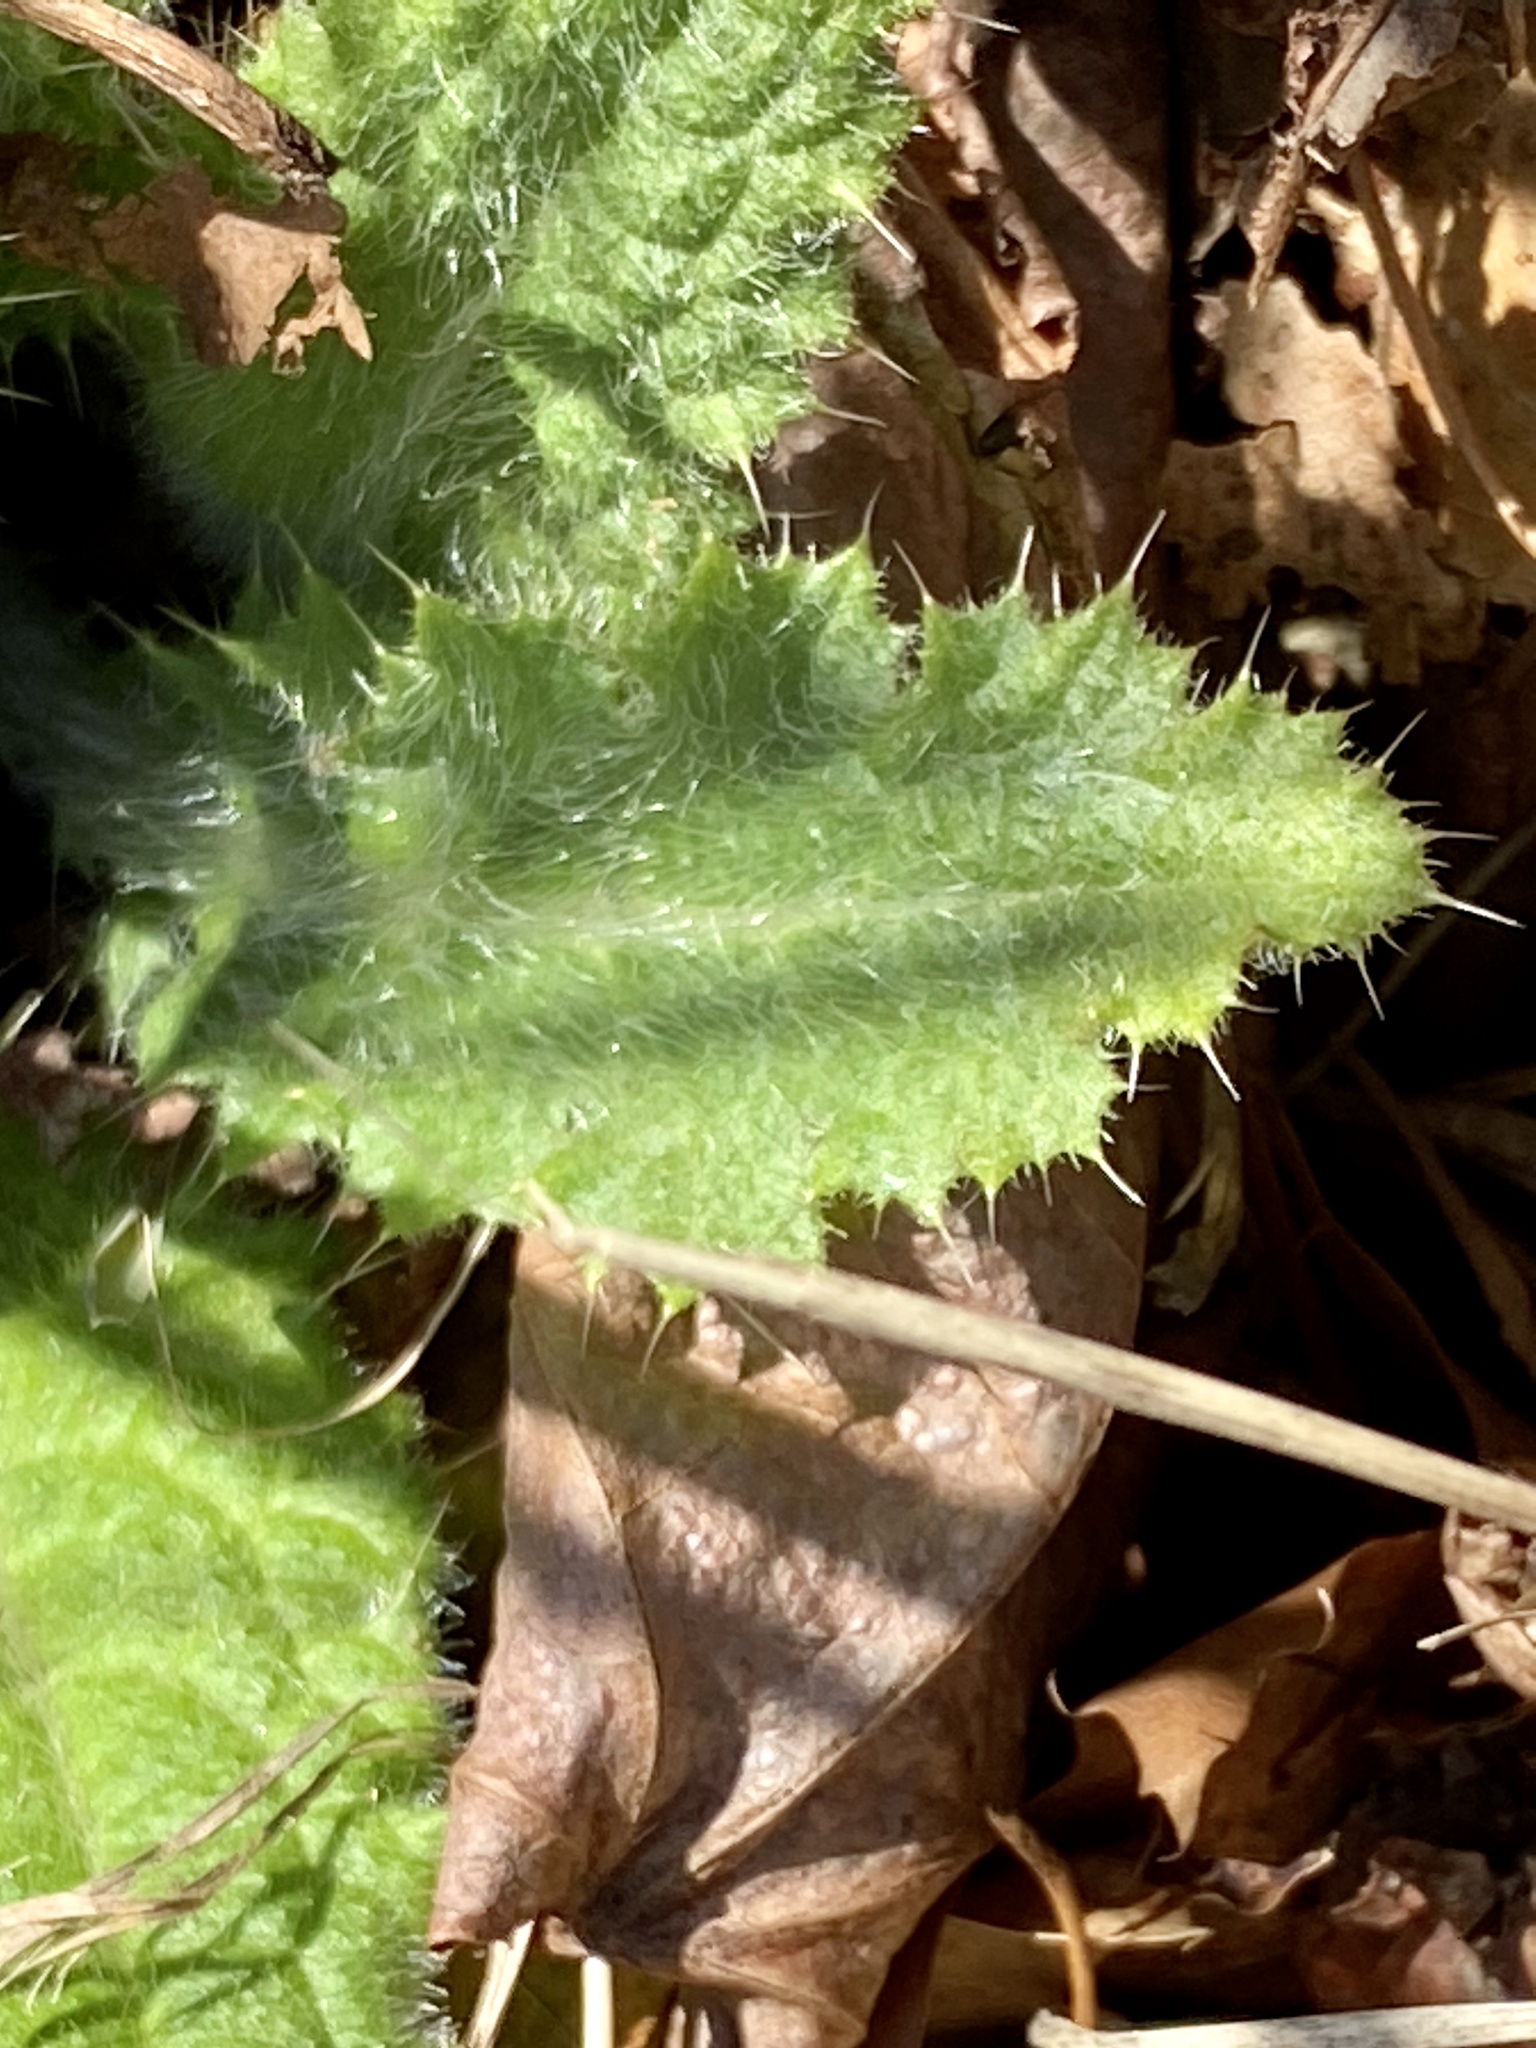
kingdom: Plantae
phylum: Tracheophyta
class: Magnoliopsida
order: Asterales
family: Asteraceae
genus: Cirsium
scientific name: Cirsium vulgare
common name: Bull thistle
